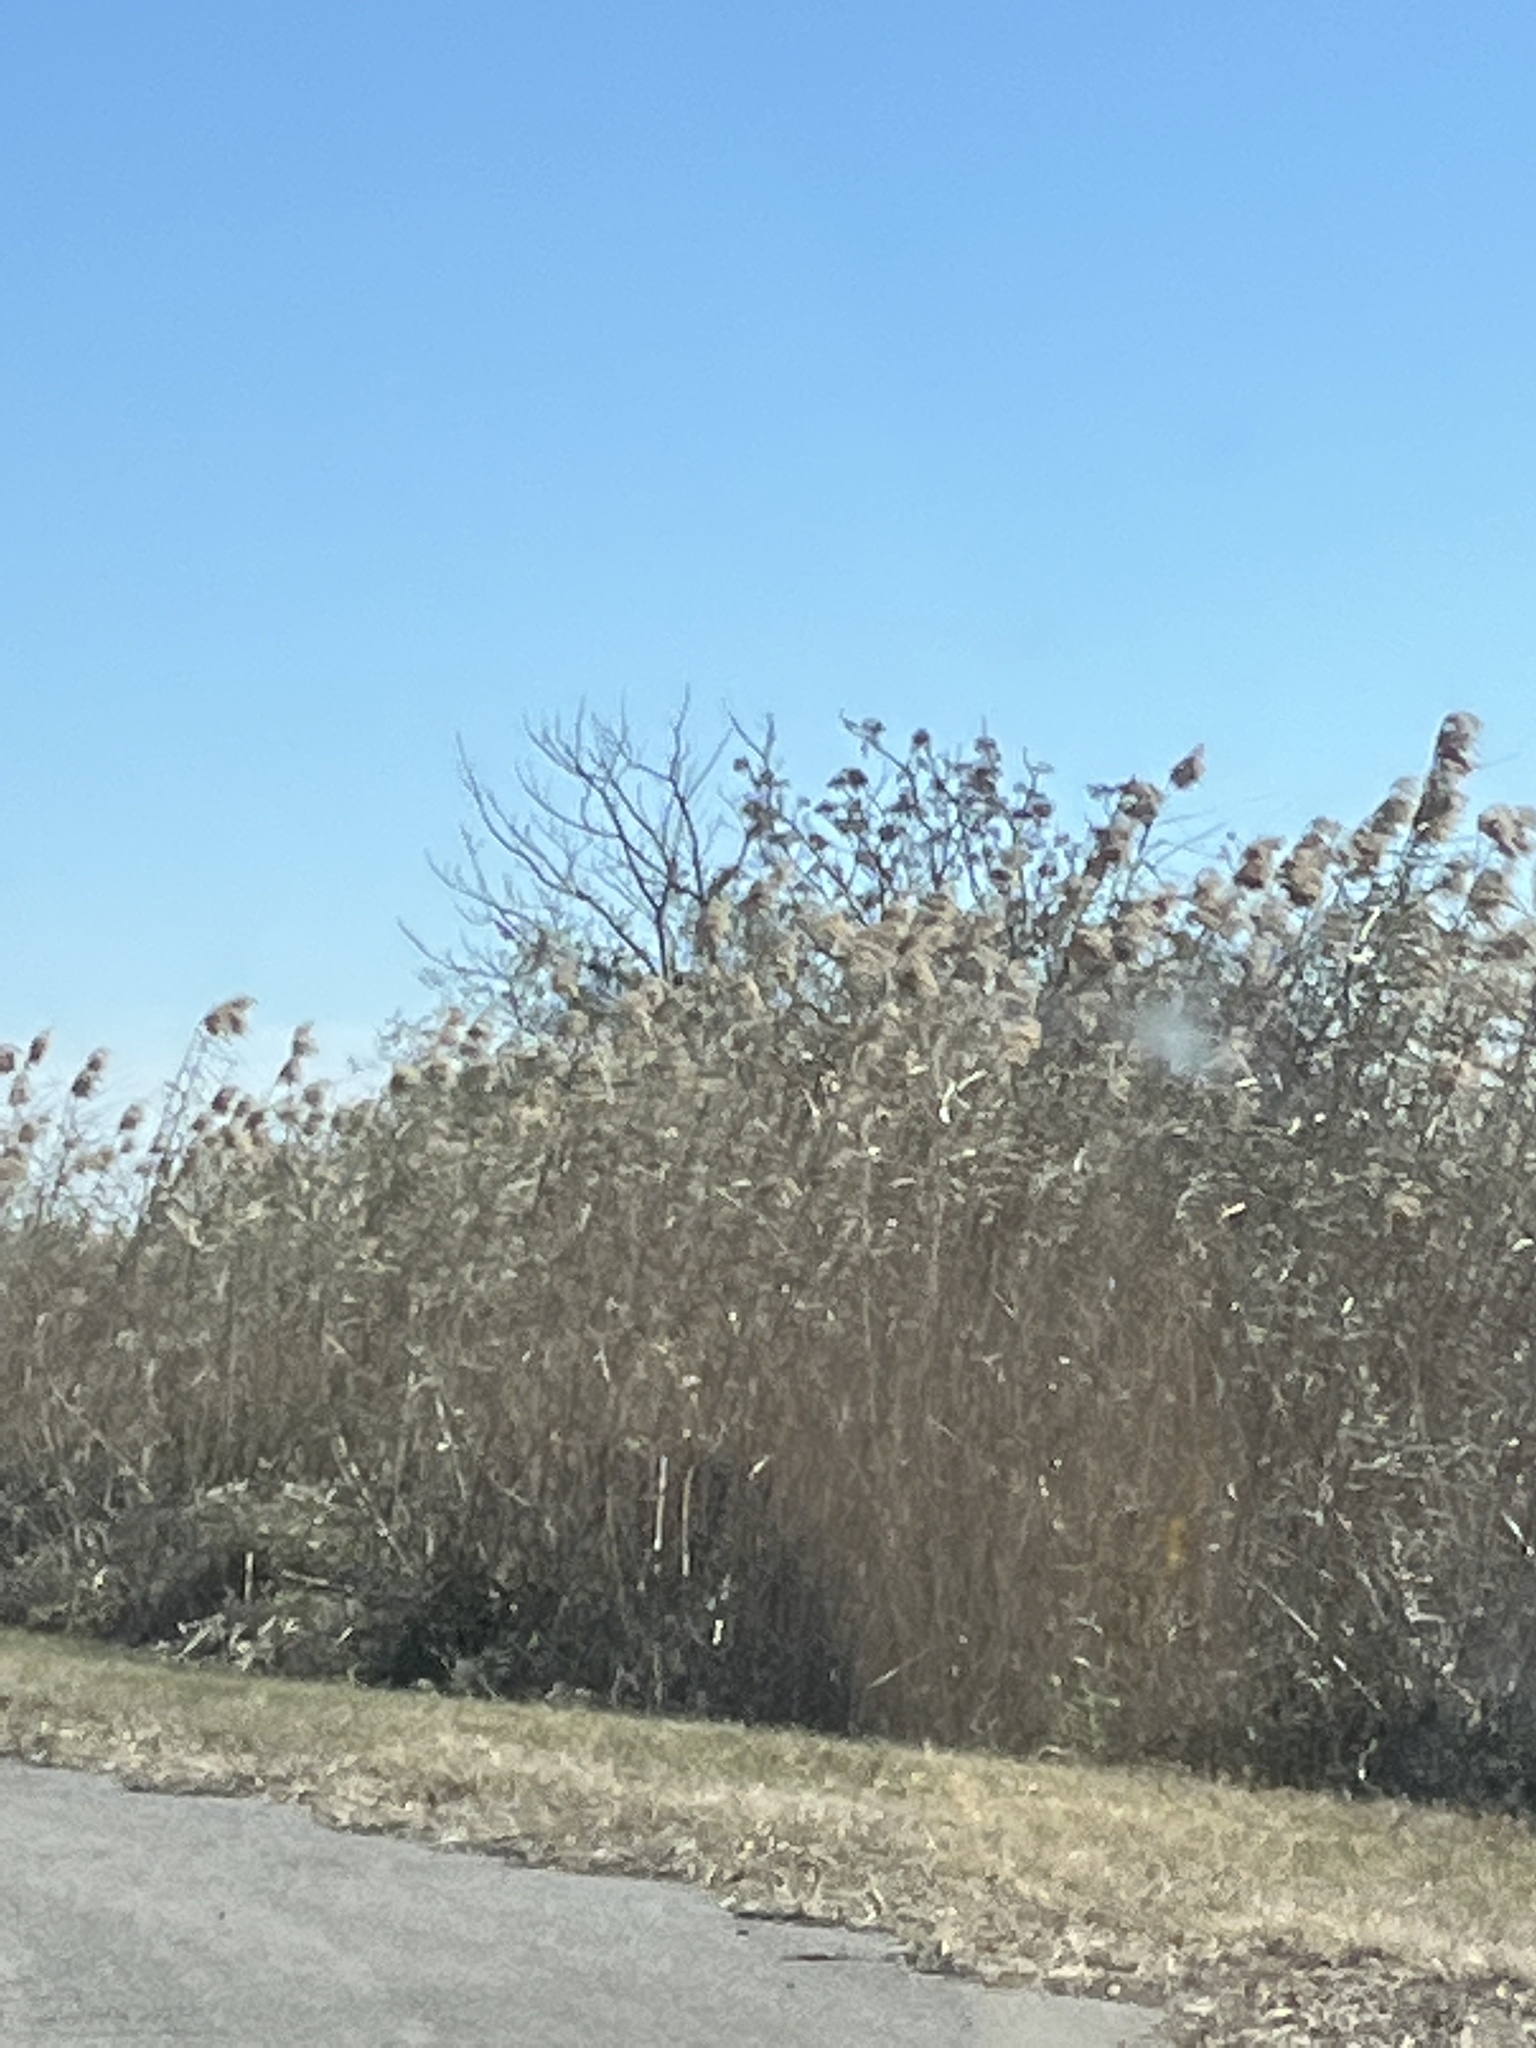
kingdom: Plantae
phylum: Tracheophyta
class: Liliopsida
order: Poales
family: Poaceae
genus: Phragmites
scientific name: Phragmites australis
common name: Common reed
